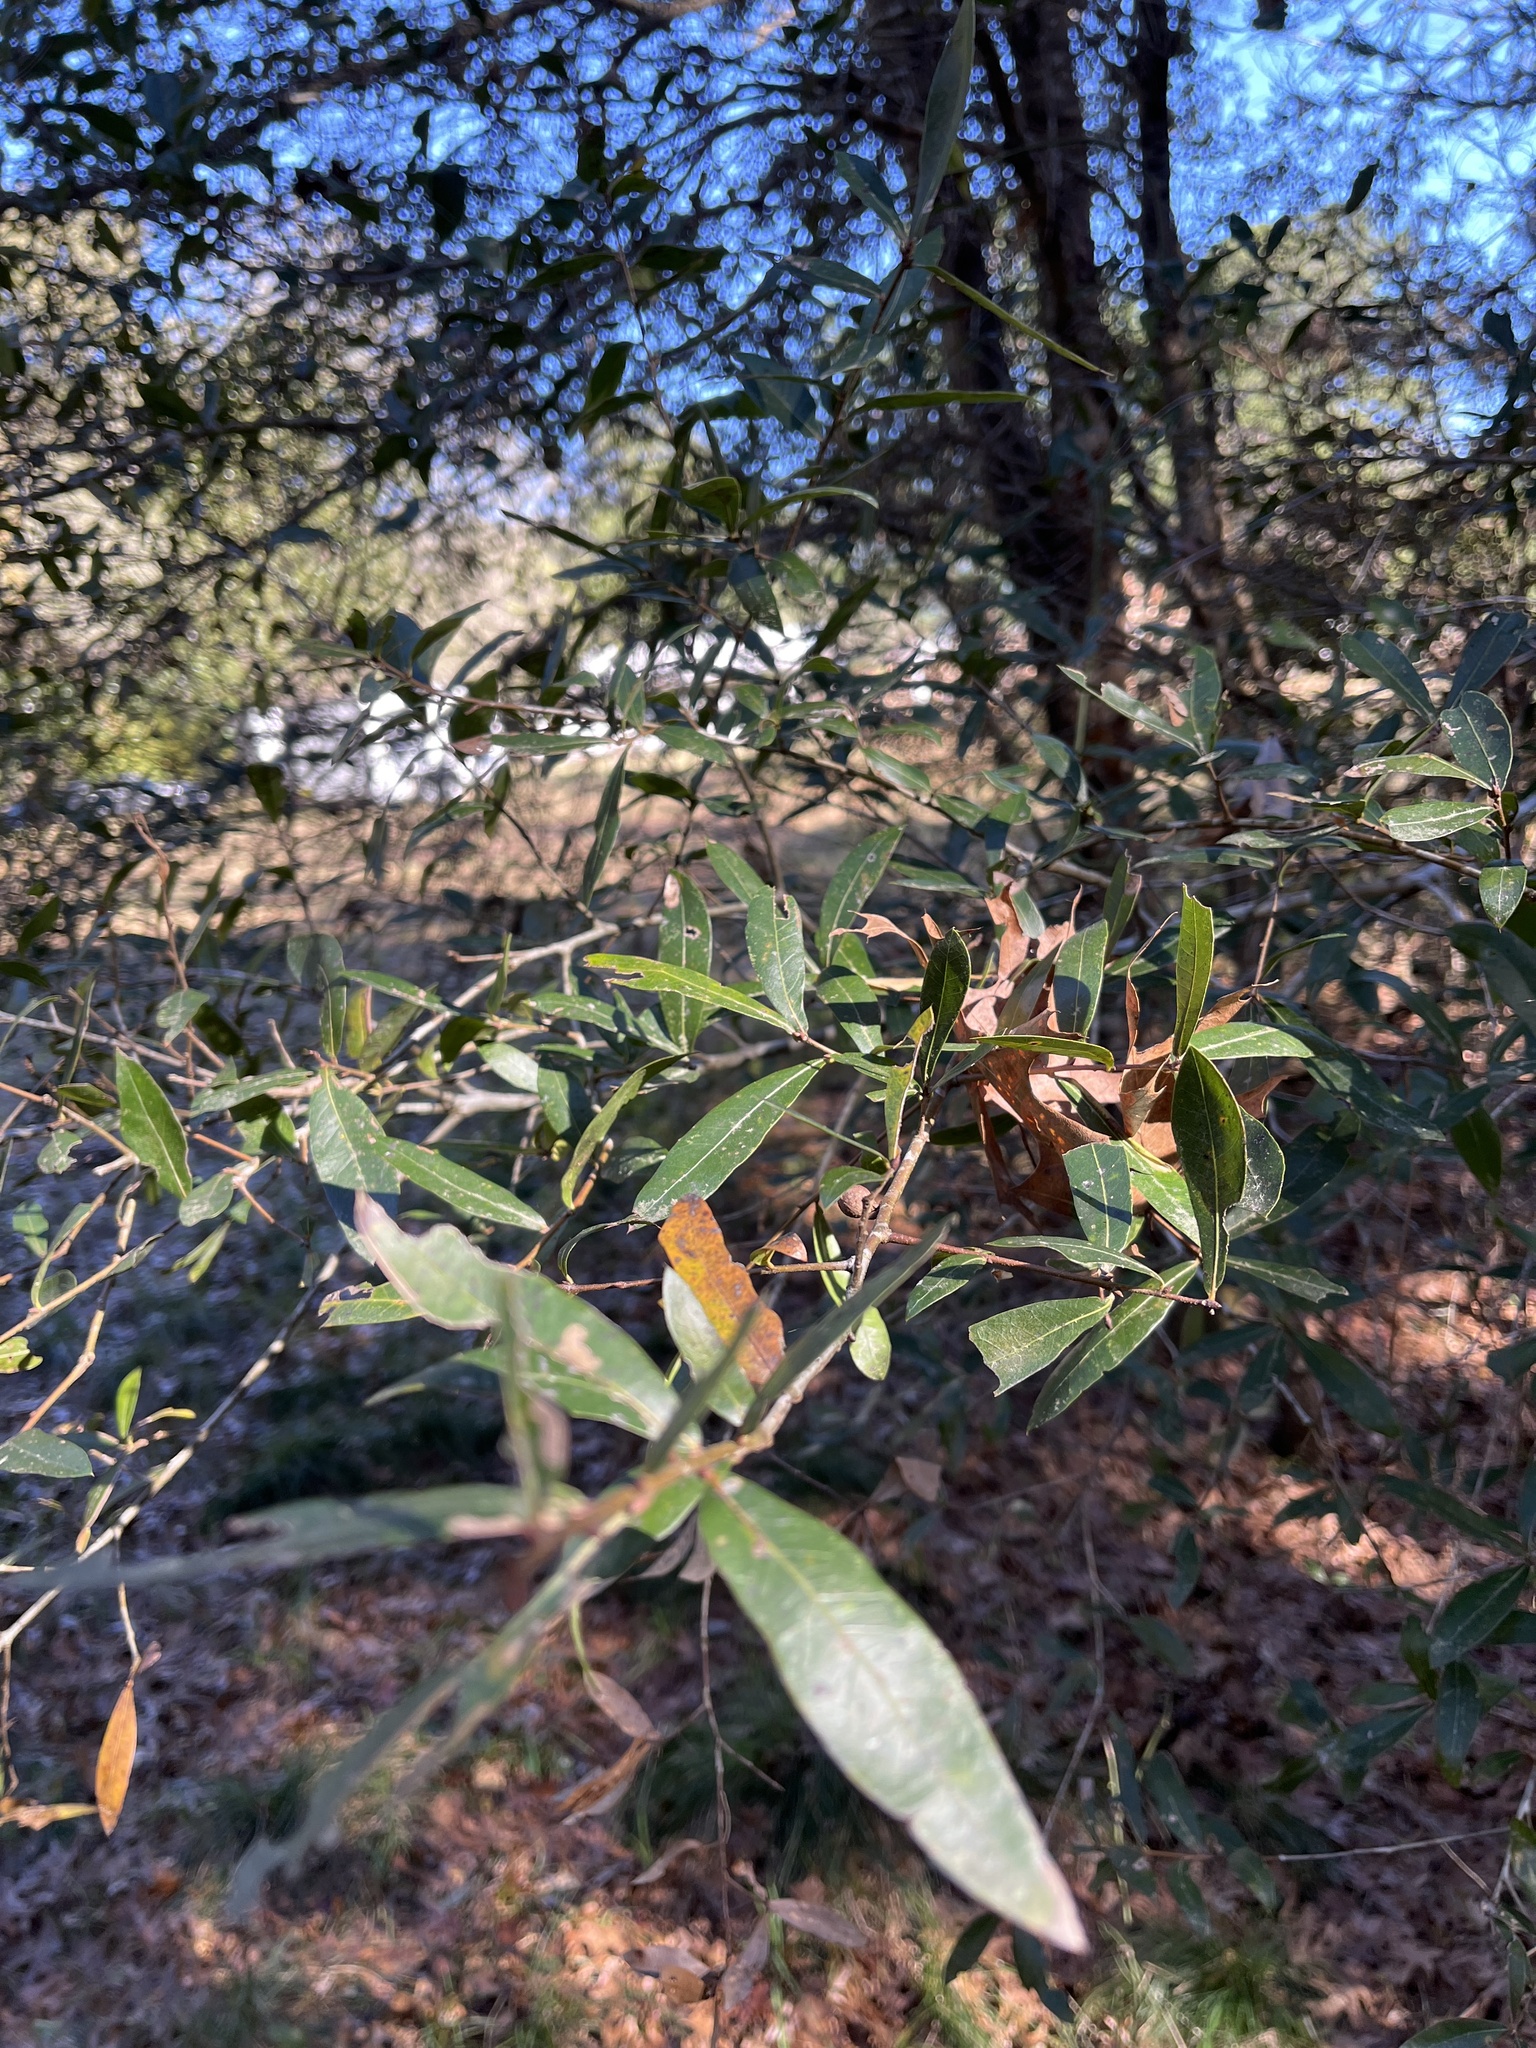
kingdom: Plantae
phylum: Tracheophyta
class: Magnoliopsida
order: Fagales
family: Fagaceae
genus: Quercus
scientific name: Quercus hemisphaerica
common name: Darlington oak
